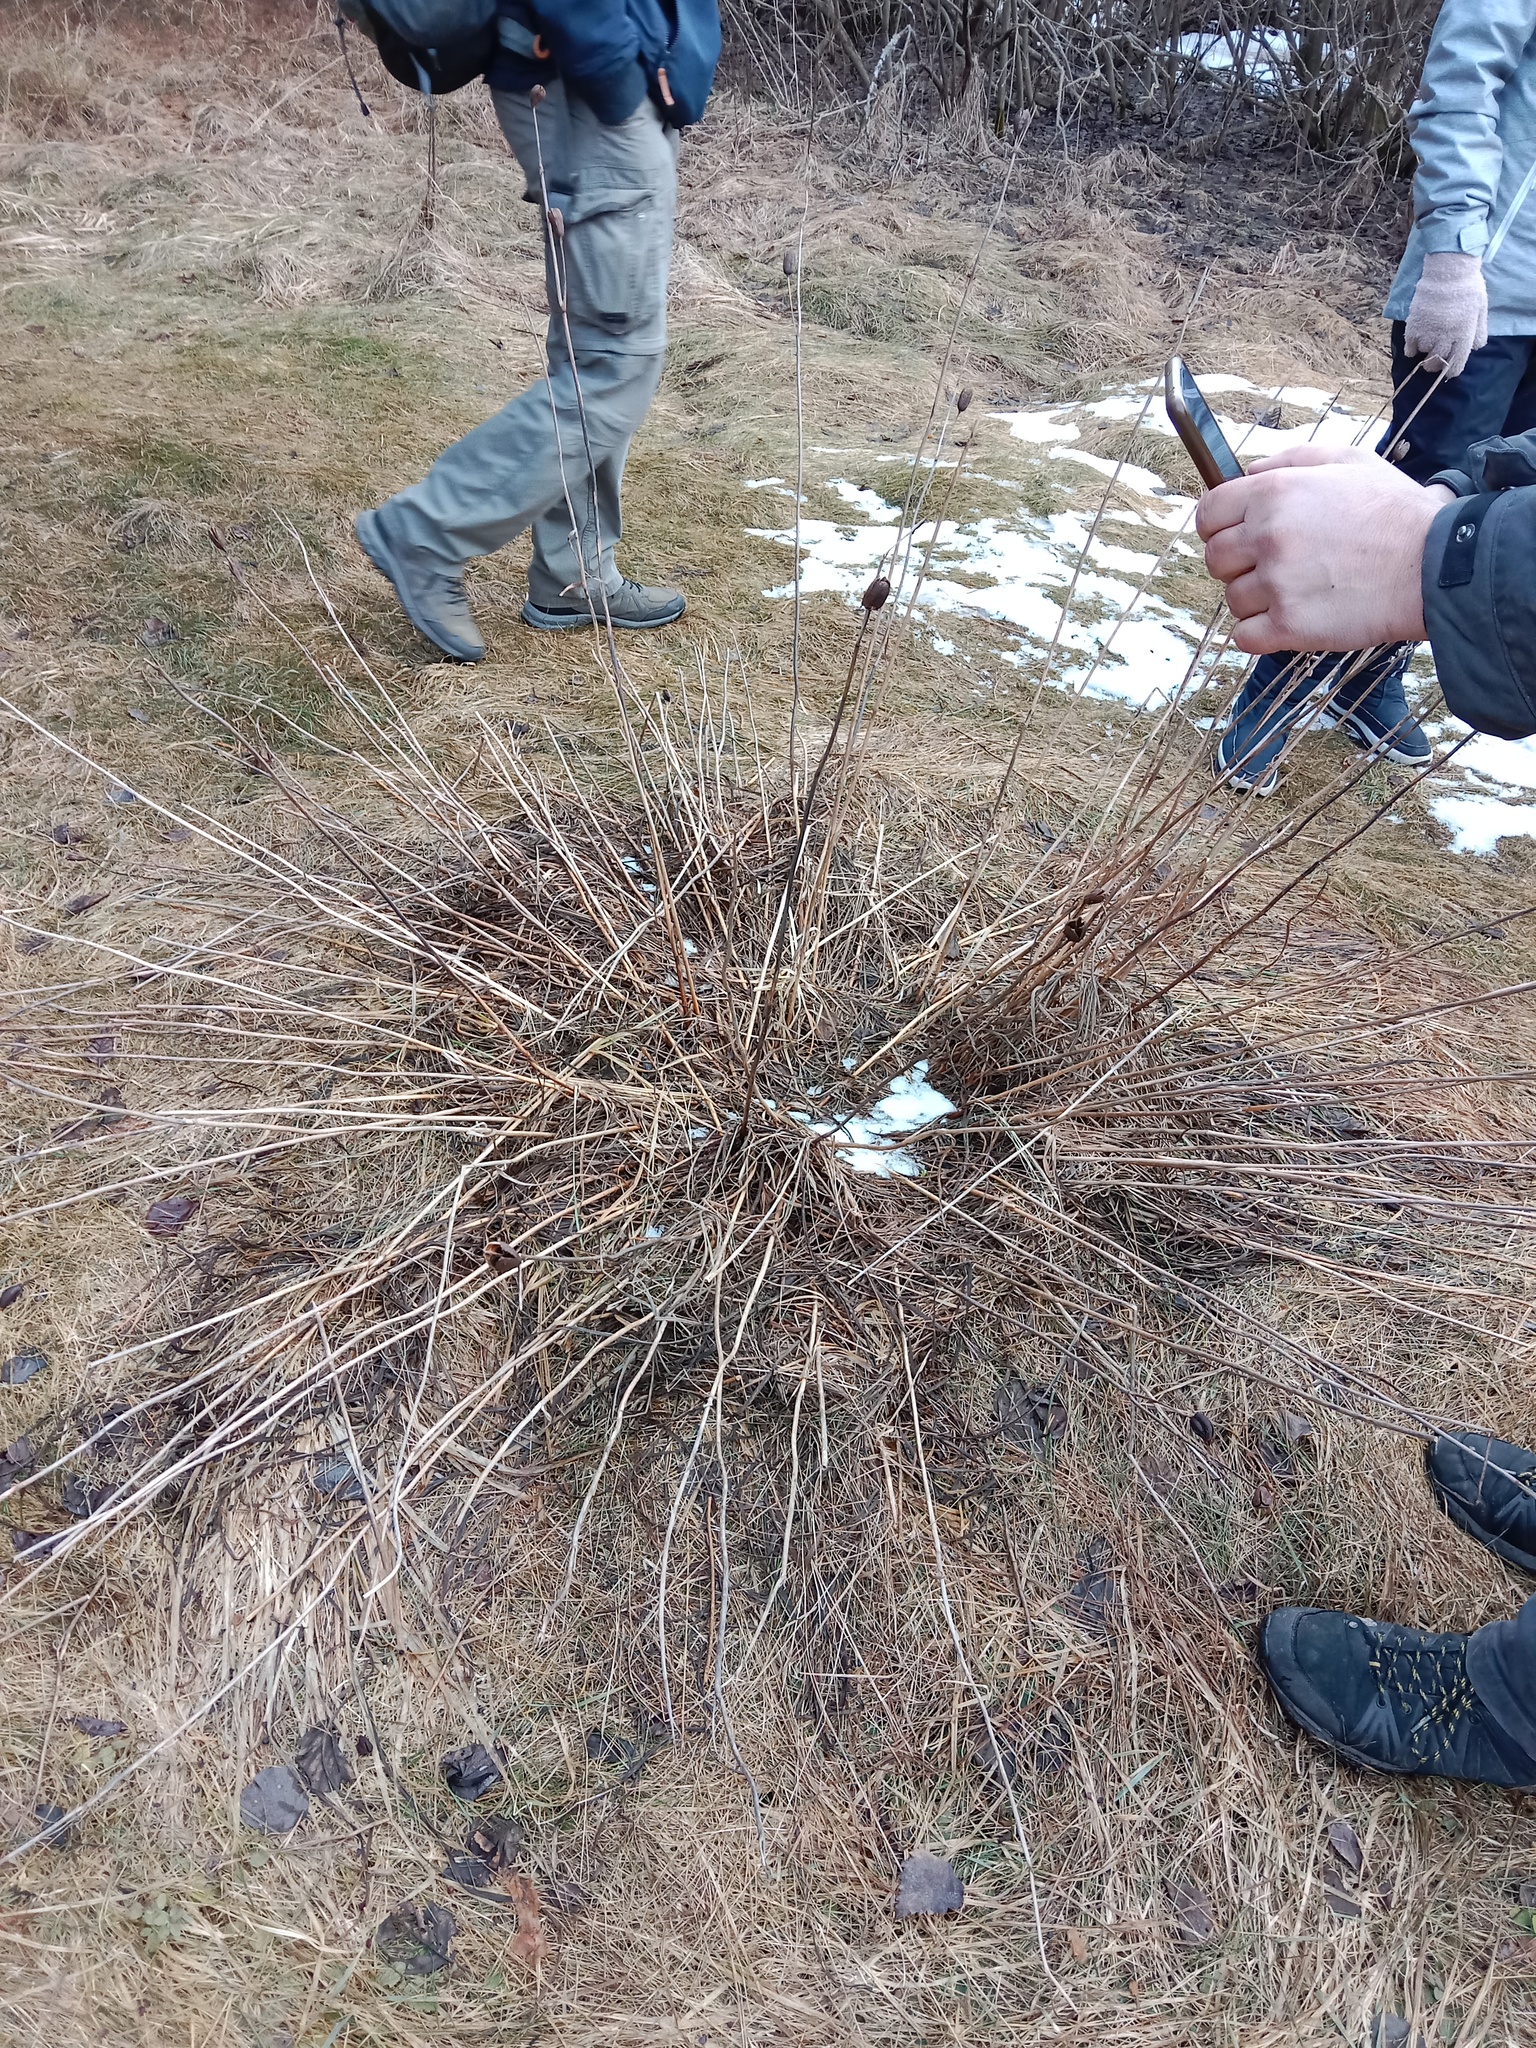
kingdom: Plantae
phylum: Tracheophyta
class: Liliopsida
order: Asparagales
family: Iridaceae
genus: Iris
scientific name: Iris sibirica
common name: Siberian iris
